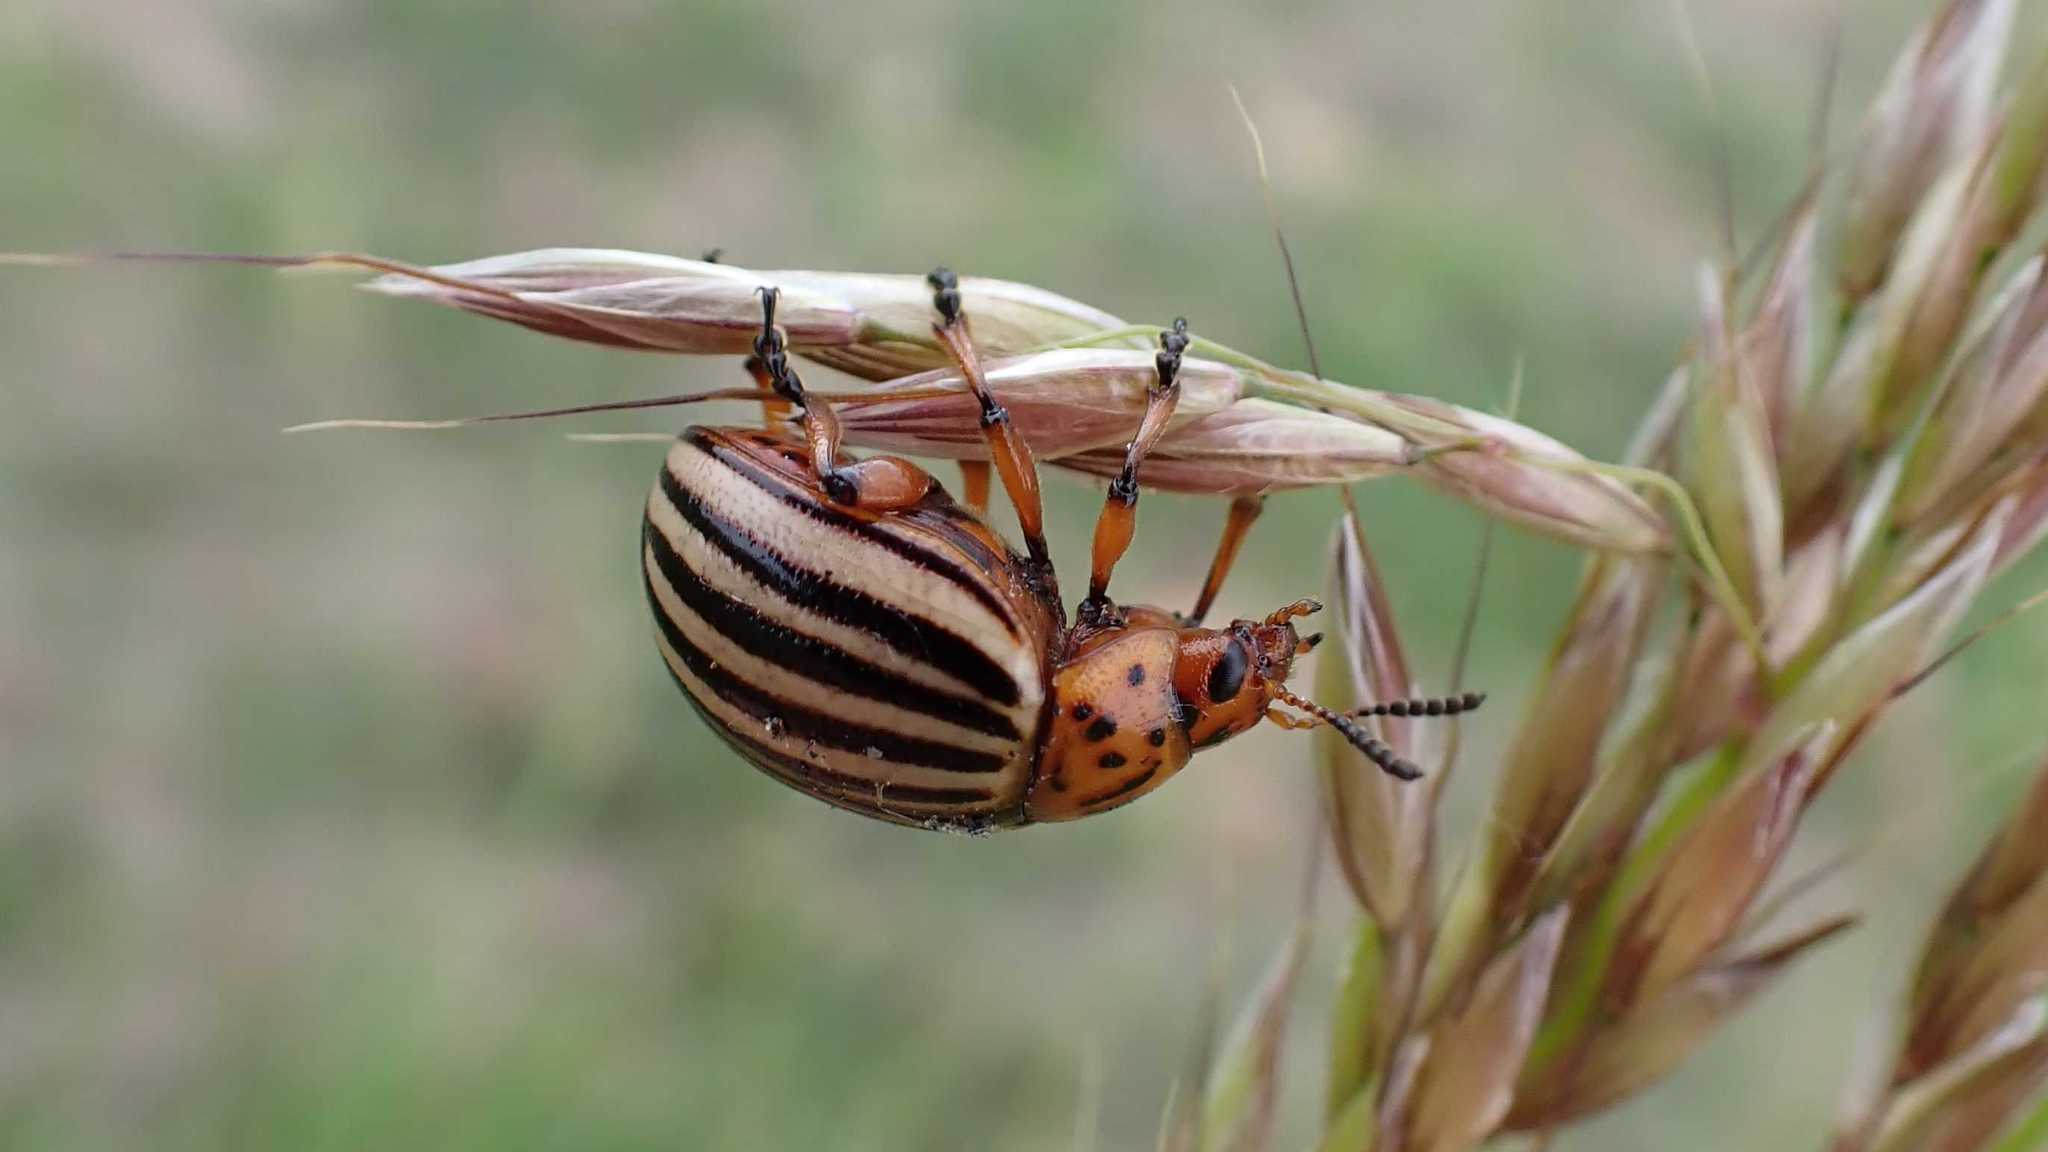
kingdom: Animalia
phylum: Arthropoda
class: Insecta
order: Coleoptera
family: Chrysomelidae
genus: Leptinotarsa
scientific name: Leptinotarsa decemlineata
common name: Colorado potato beetle
